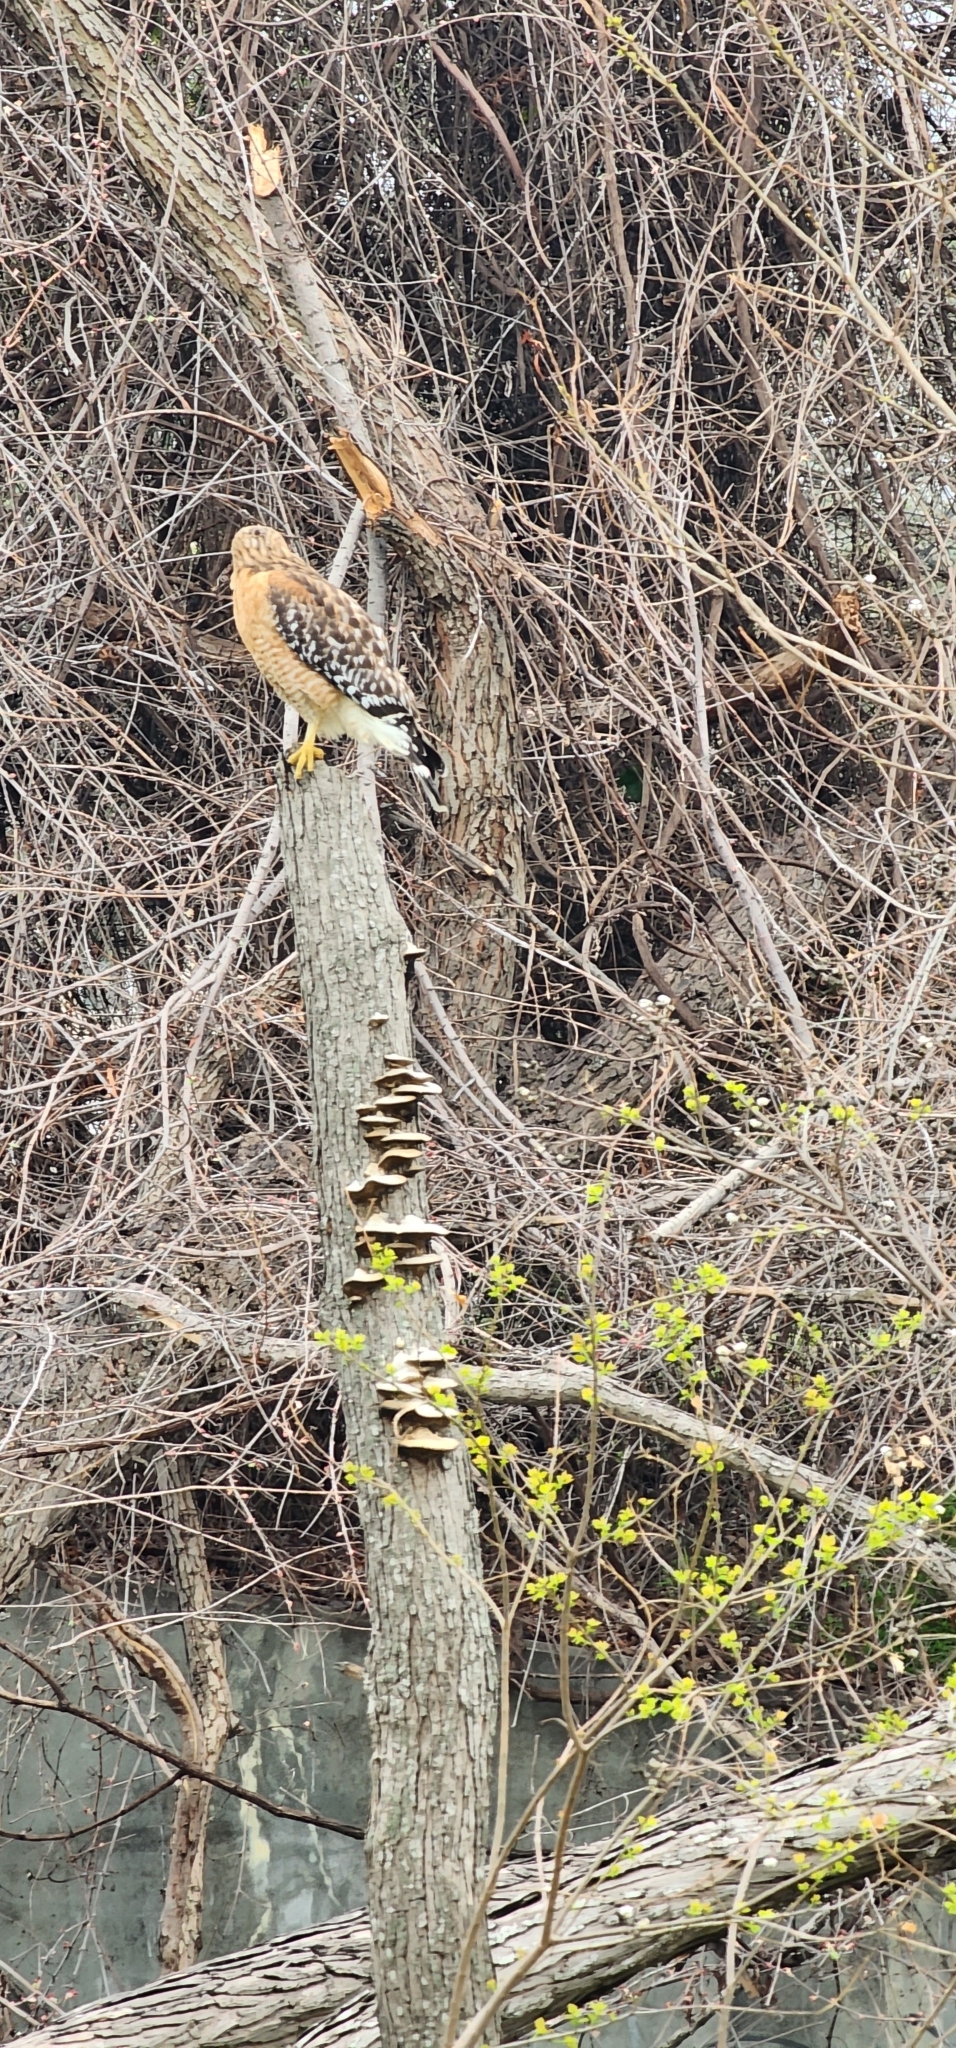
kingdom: Animalia
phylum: Chordata
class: Aves
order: Accipitriformes
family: Accipitridae
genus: Buteo
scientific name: Buteo lineatus
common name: Red-shouldered hawk
